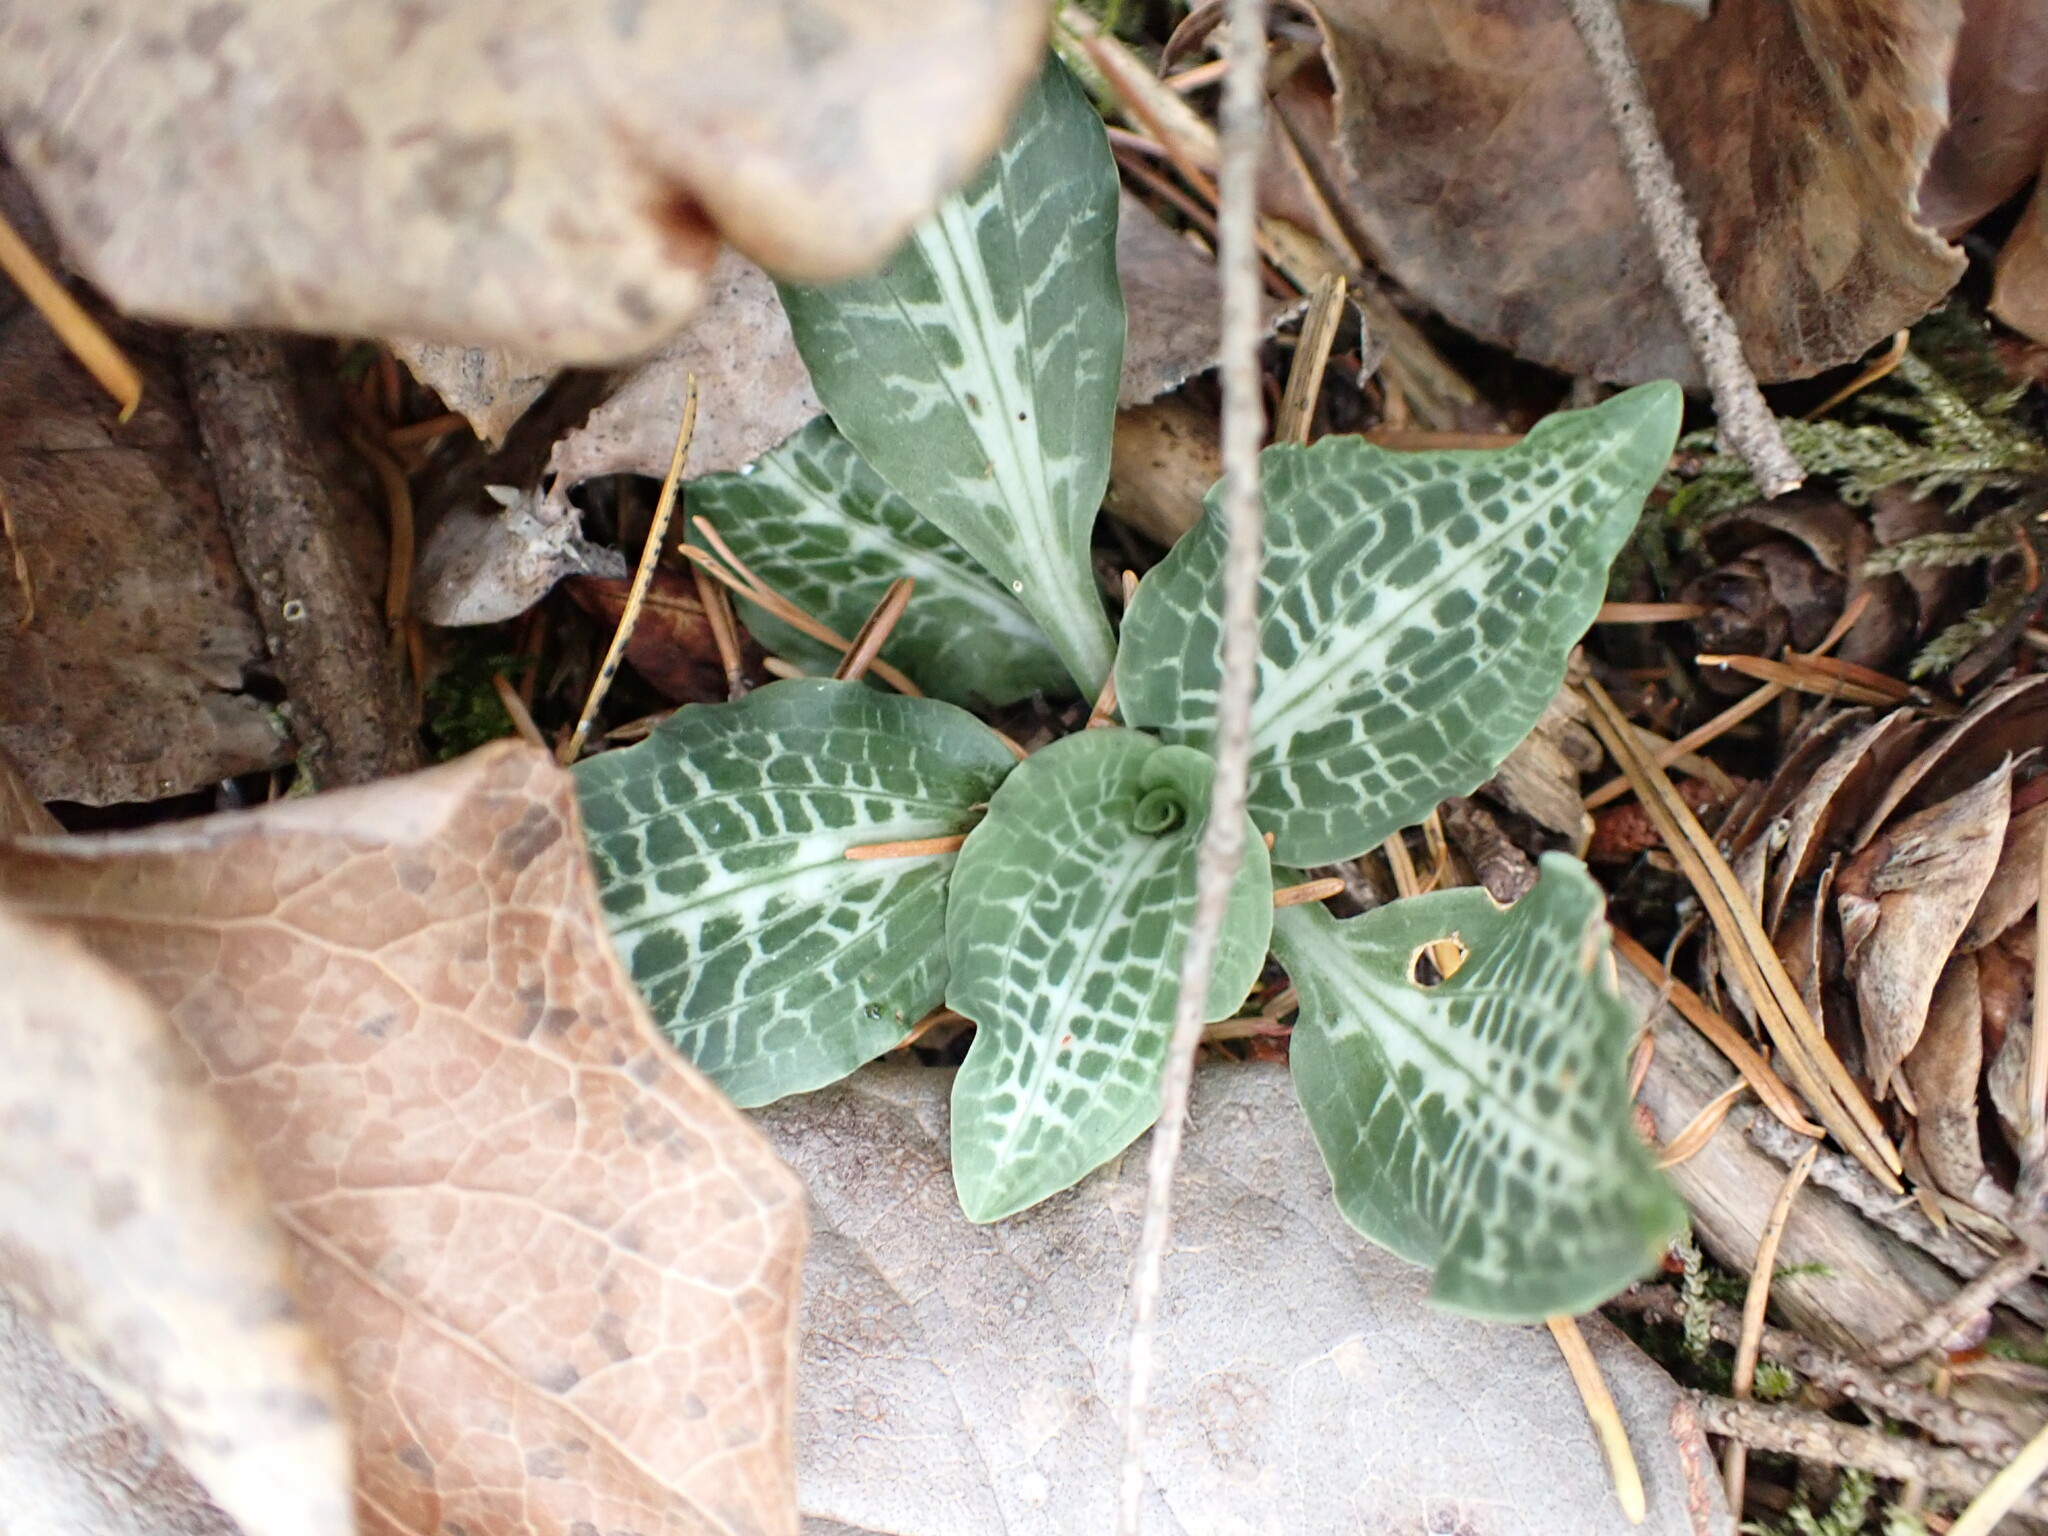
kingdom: Plantae
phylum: Tracheophyta
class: Liliopsida
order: Asparagales
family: Orchidaceae
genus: Goodyera
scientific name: Goodyera oblongifolia
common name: Giant rattlesnake-plantain
